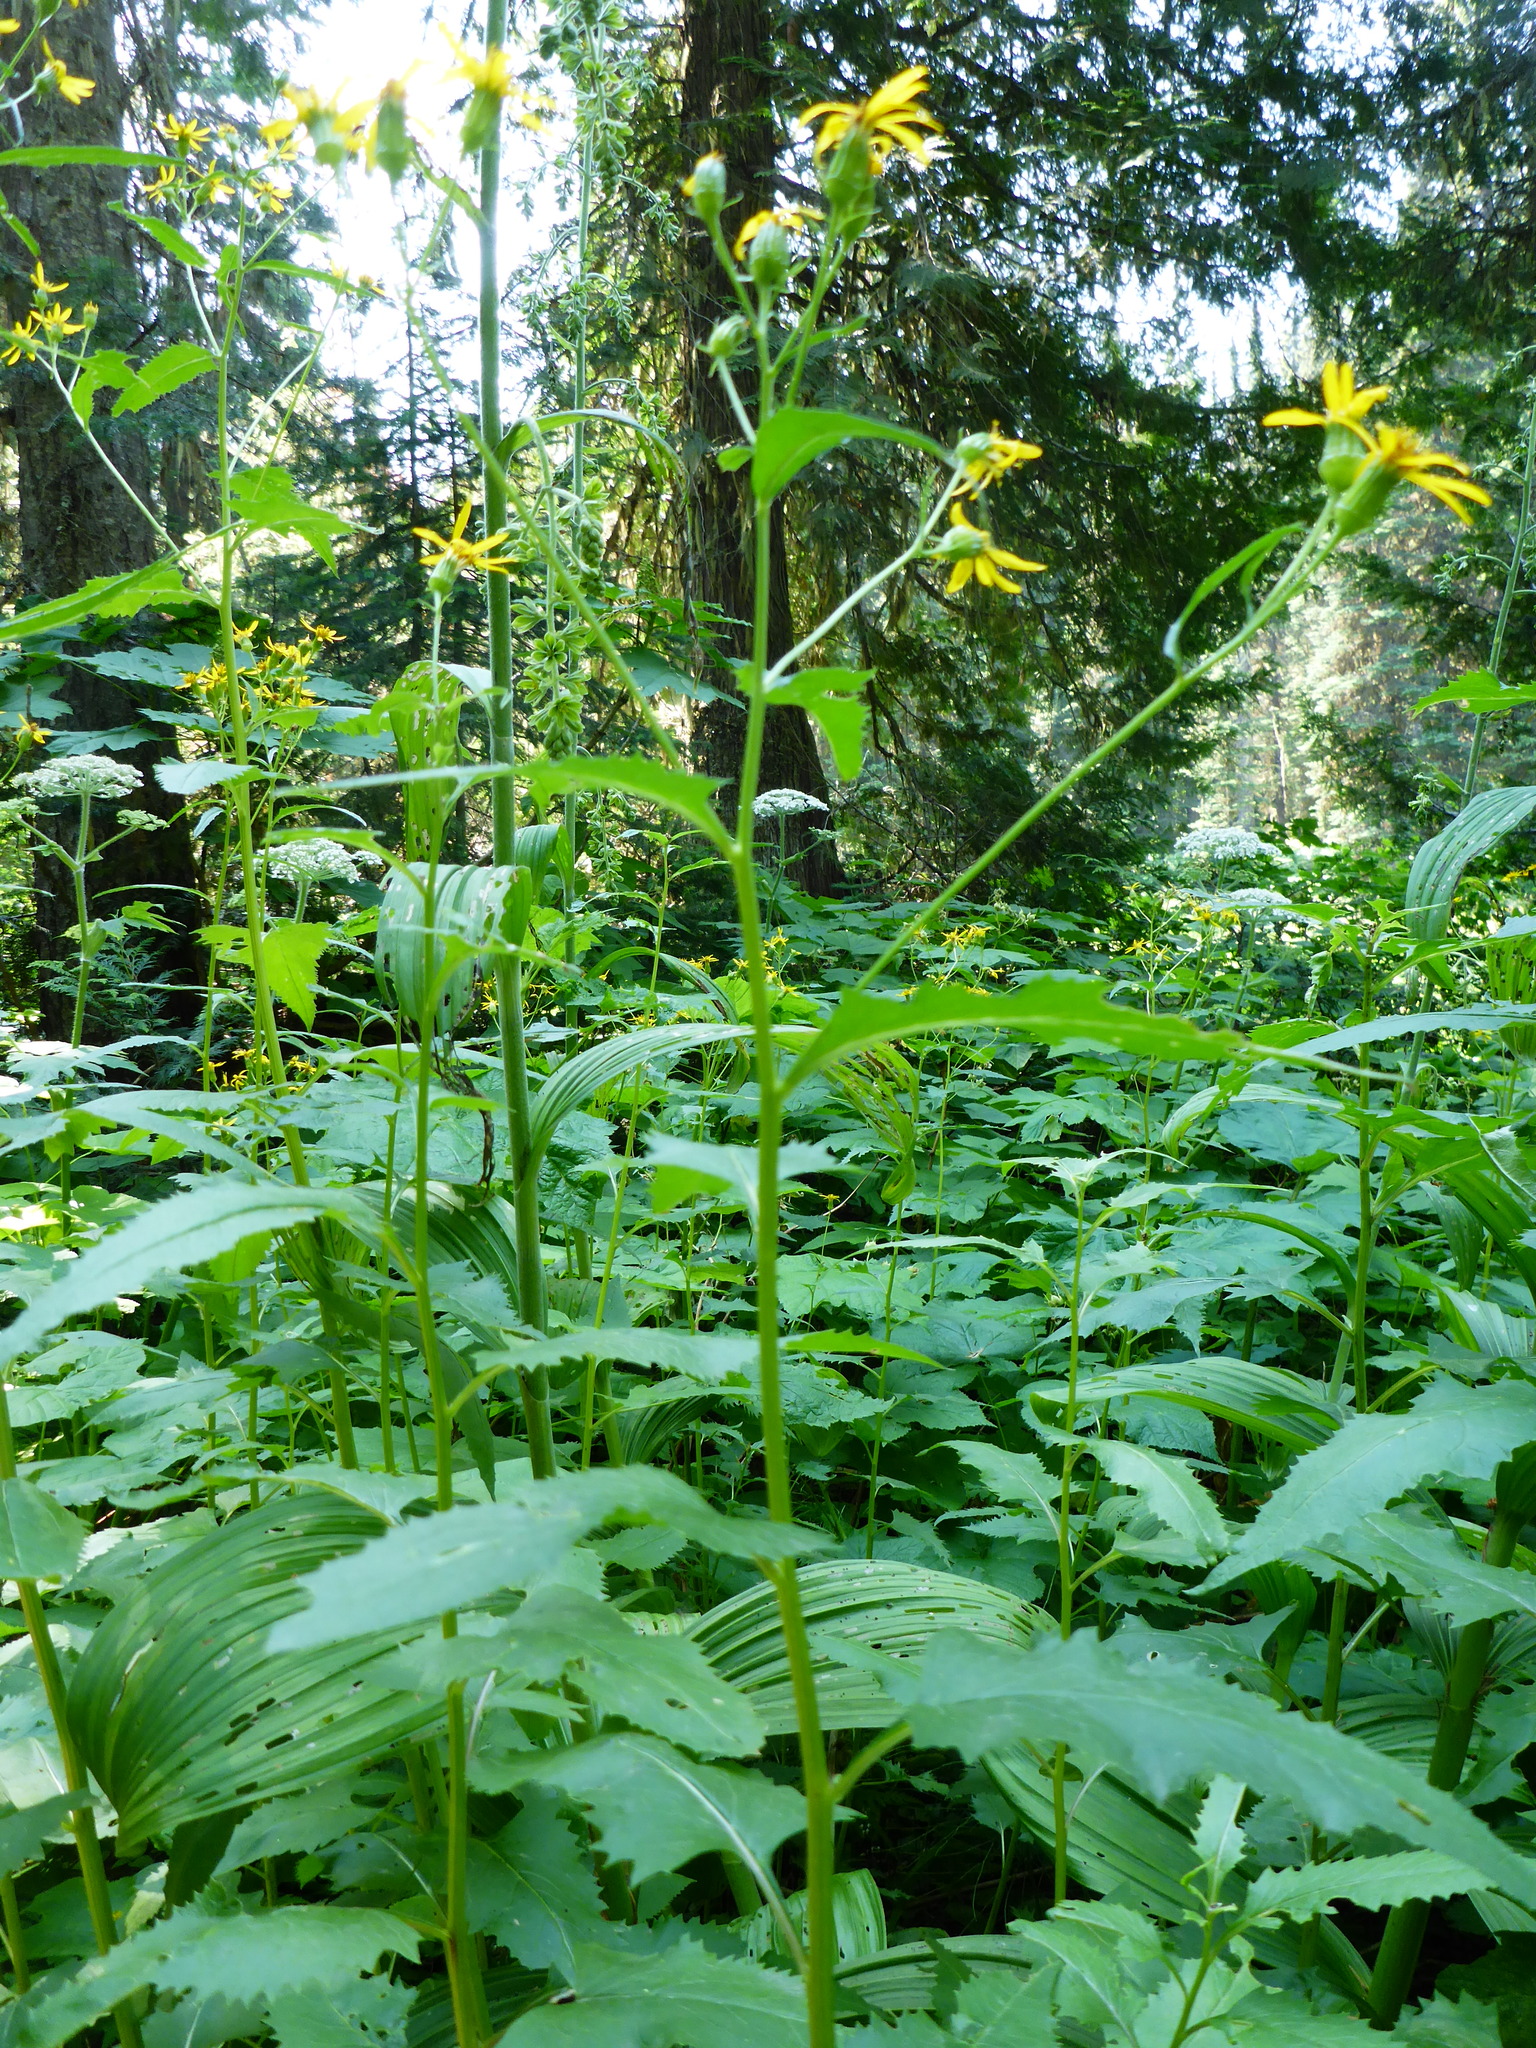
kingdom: Plantae
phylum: Tracheophyta
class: Magnoliopsida
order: Asterales
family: Asteraceae
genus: Senecio
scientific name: Senecio triangularis
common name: Arrowleaf butterweed
